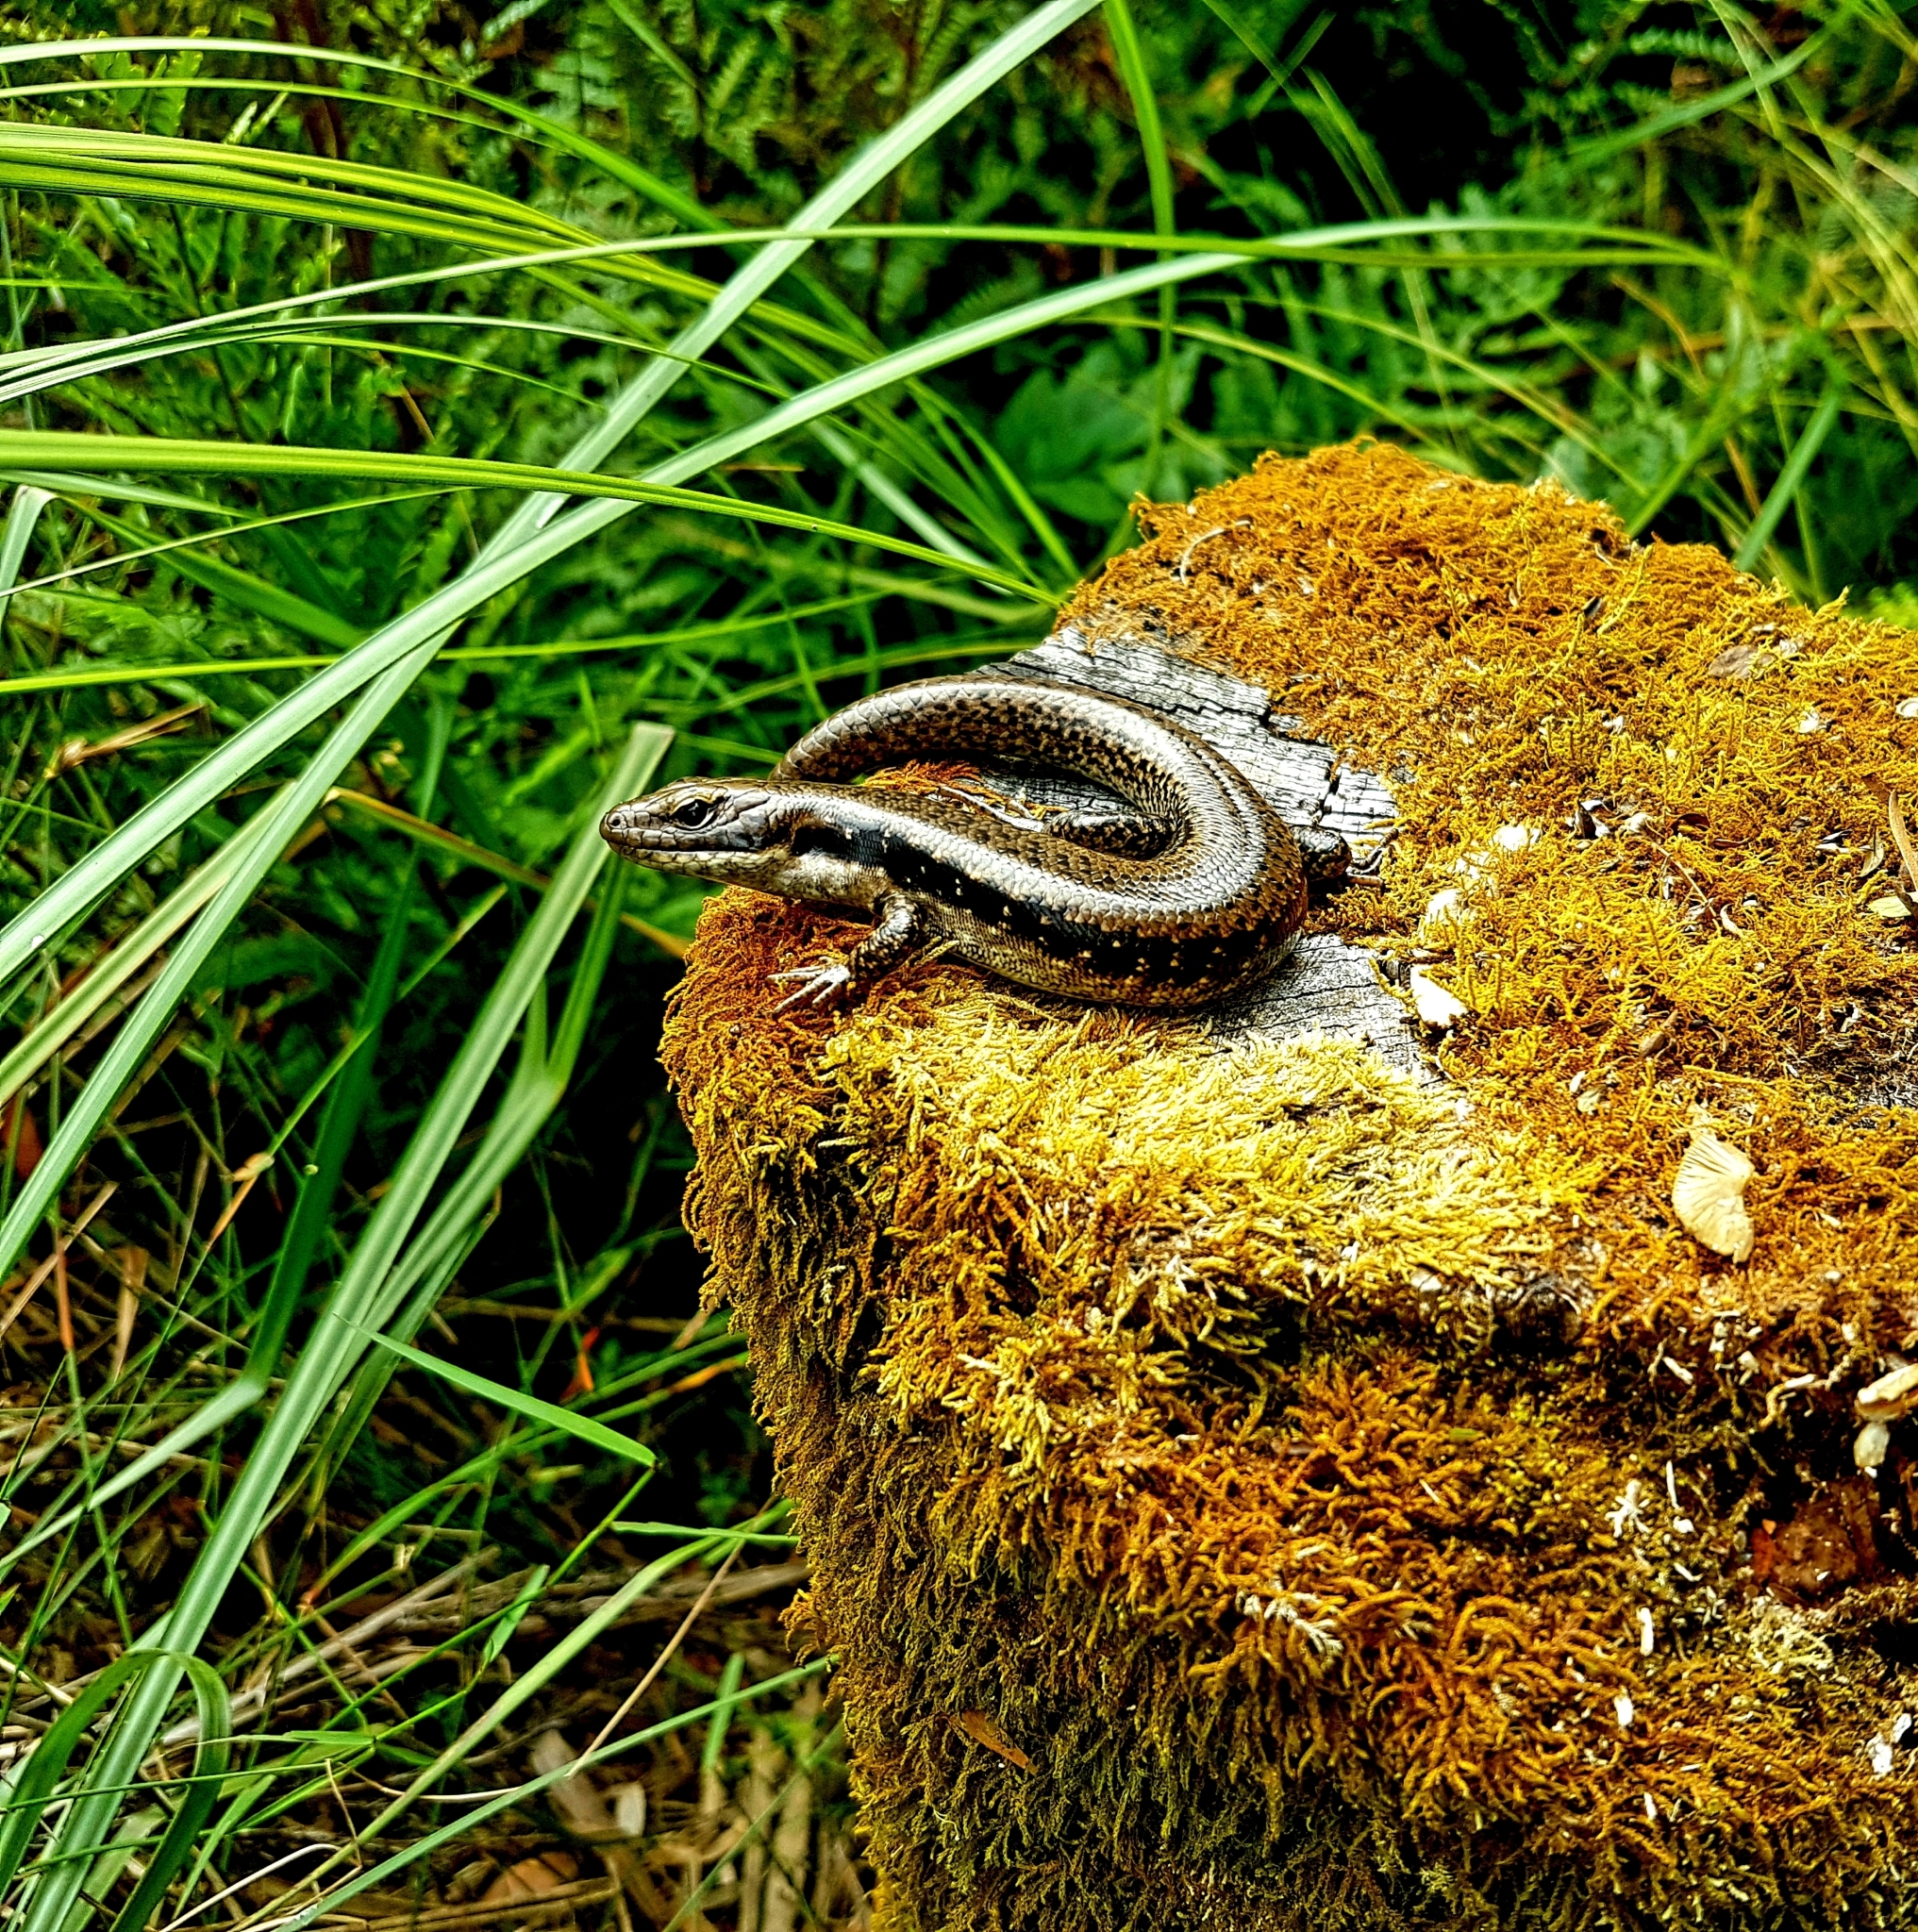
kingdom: Animalia
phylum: Chordata
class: Squamata
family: Scincidae
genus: Eulamprus
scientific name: Eulamprus tympanum
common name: Cool-temperate water-skink
